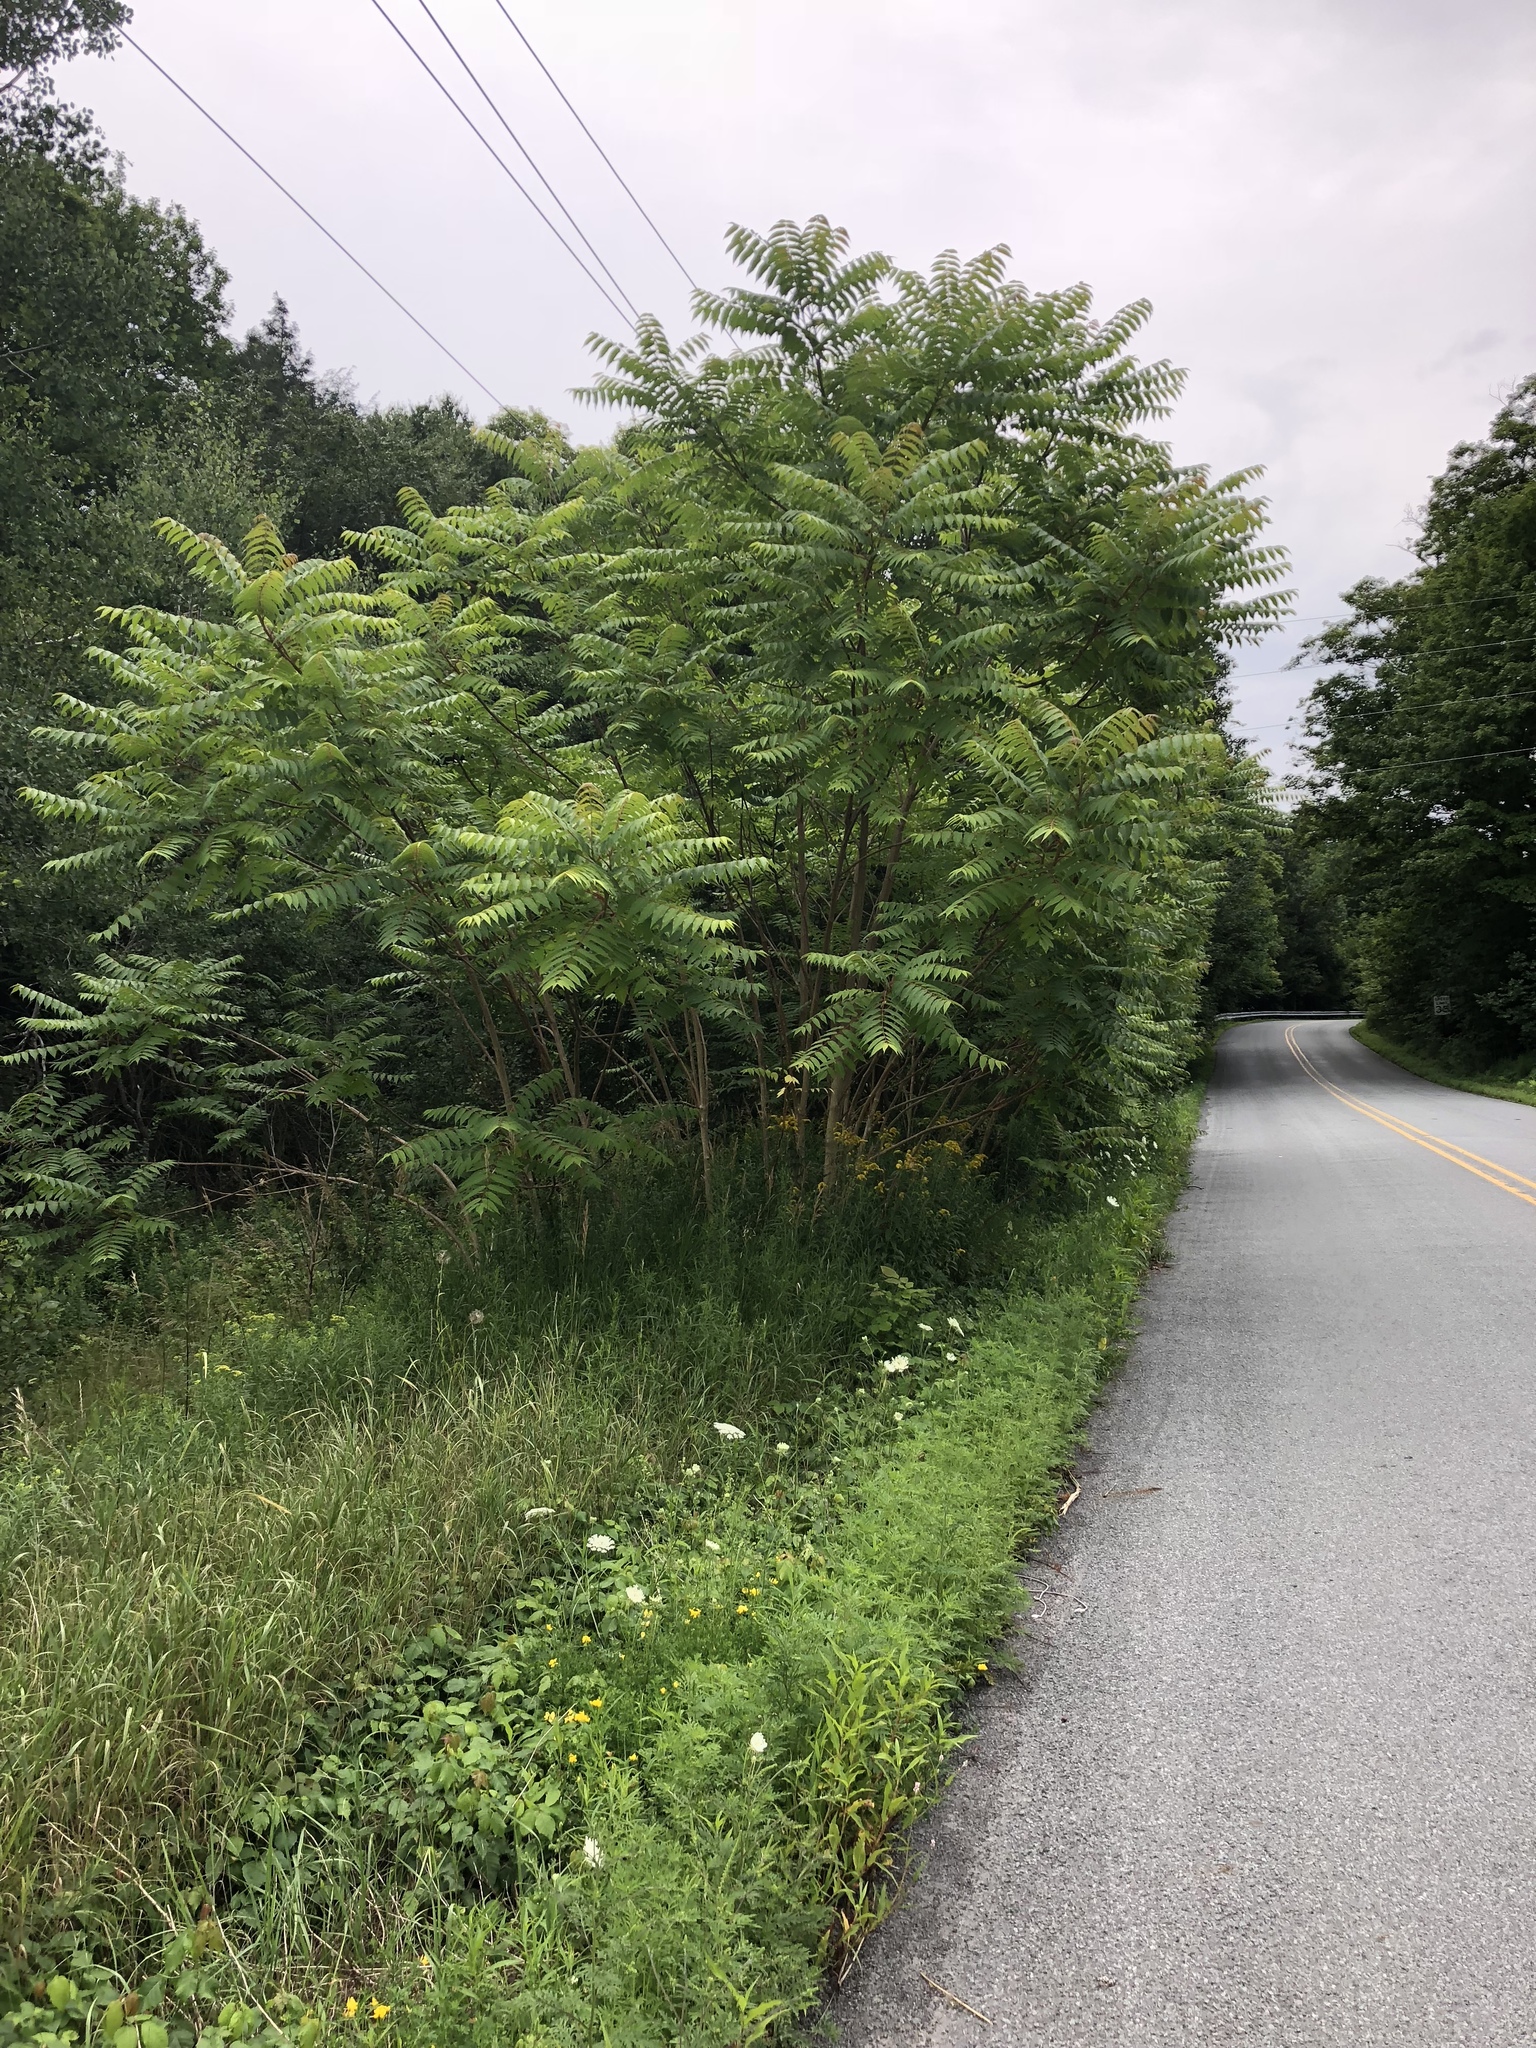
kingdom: Plantae
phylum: Tracheophyta
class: Magnoliopsida
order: Sapindales
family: Simaroubaceae
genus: Ailanthus
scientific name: Ailanthus altissima
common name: Tree-of-heaven
